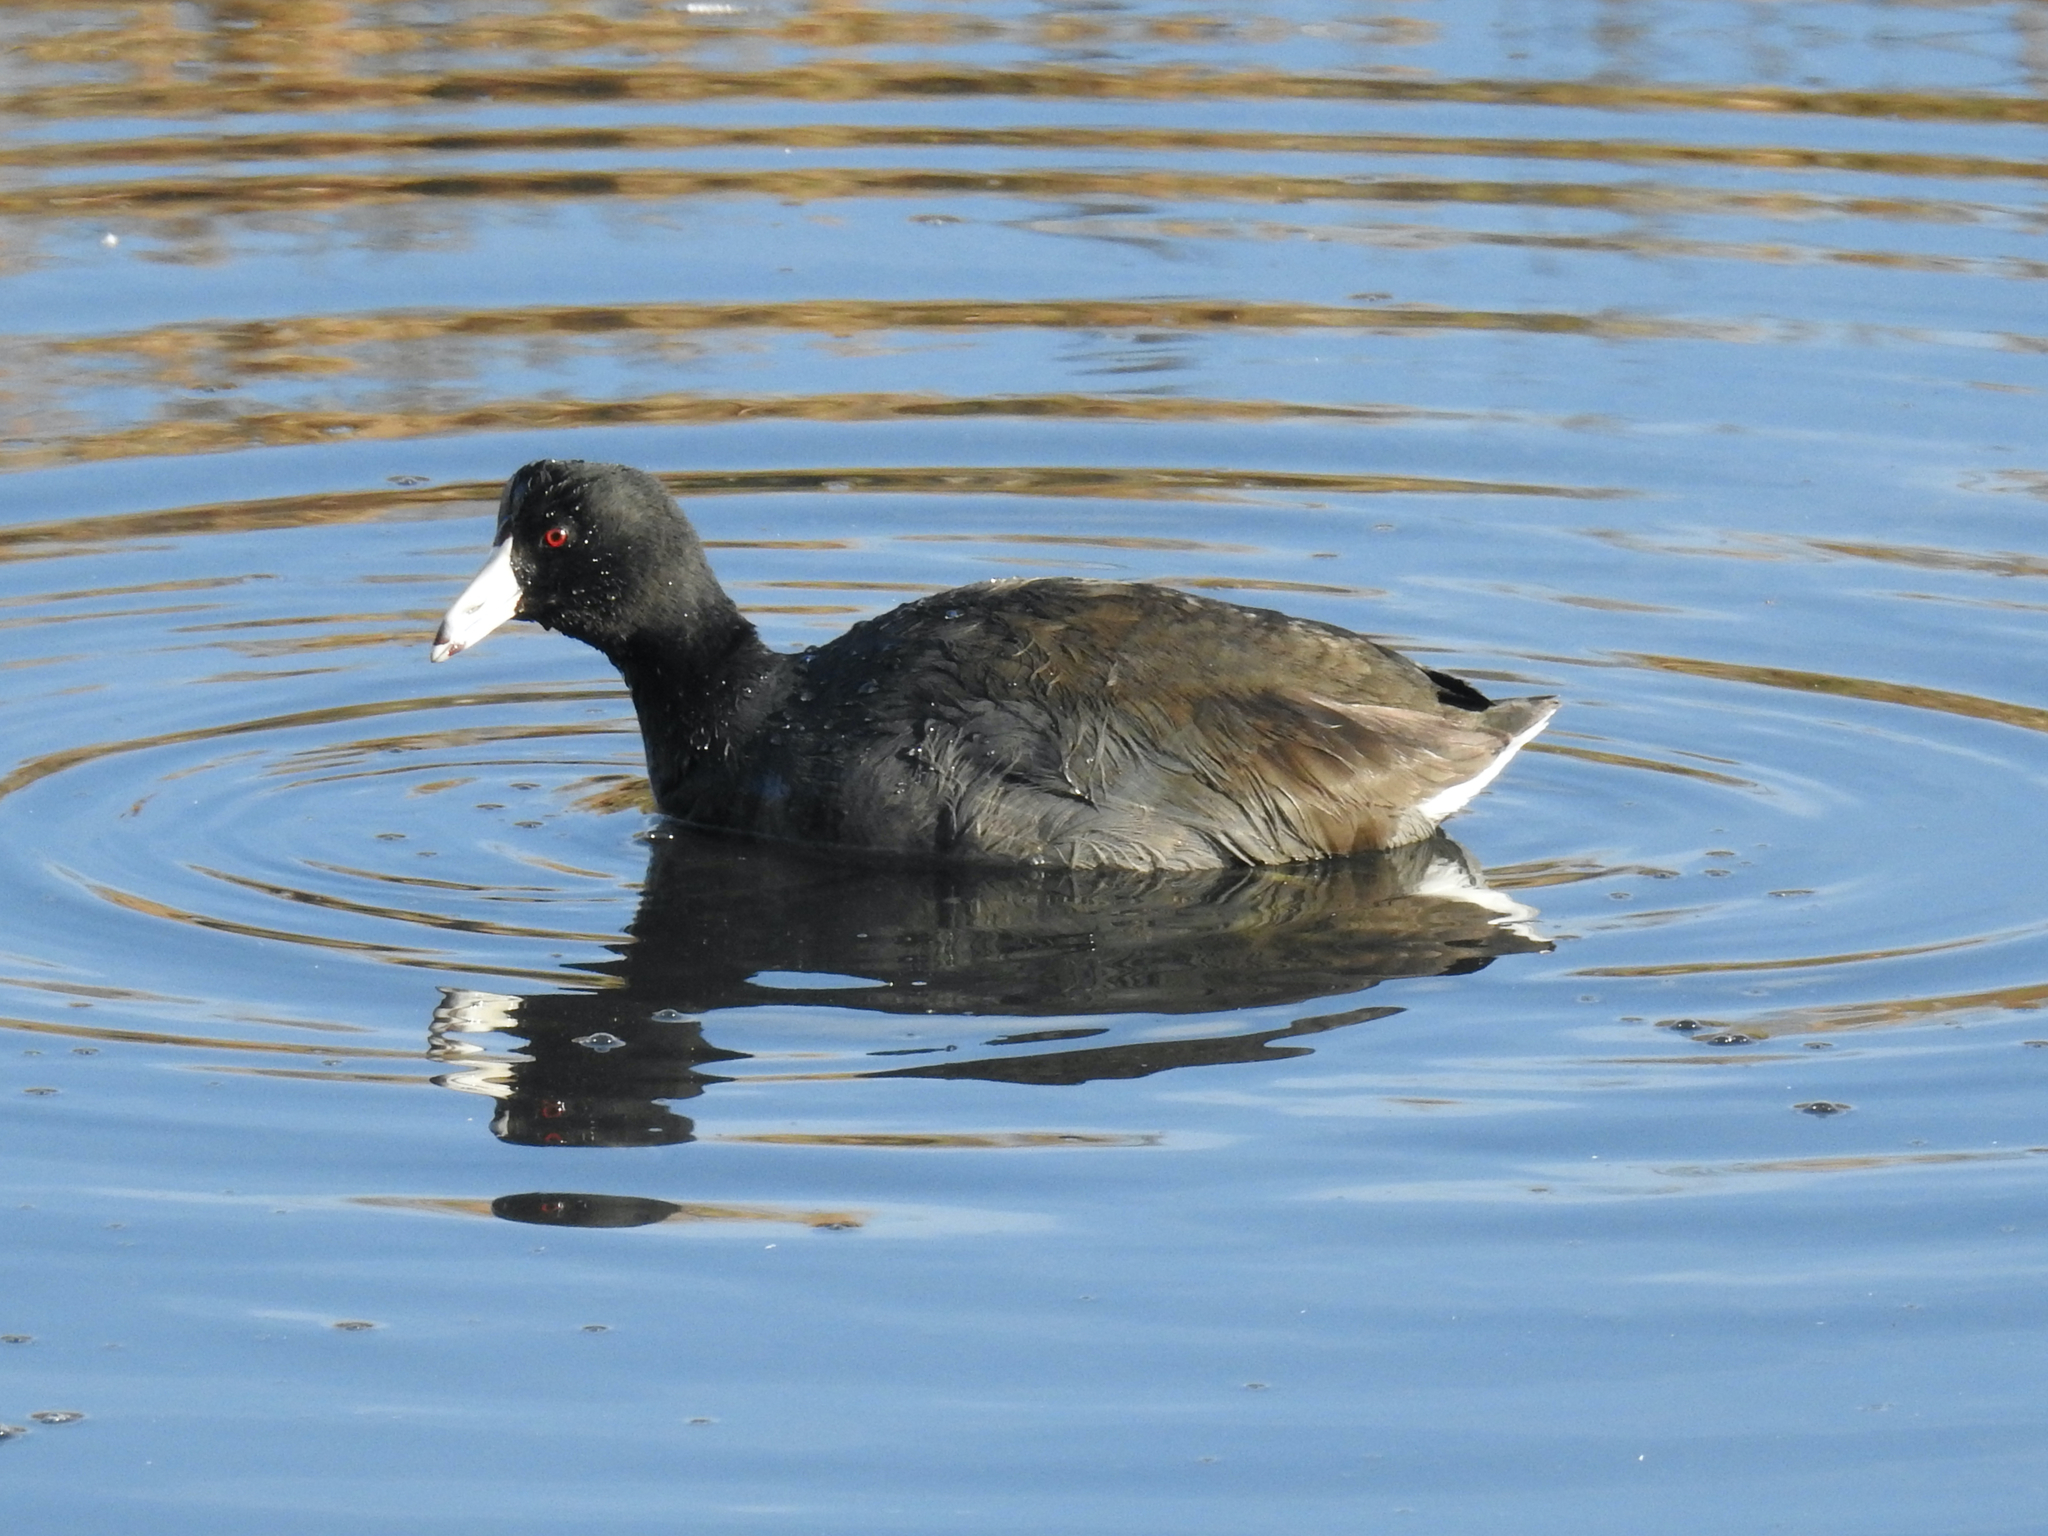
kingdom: Animalia
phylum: Chordata
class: Aves
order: Gruiformes
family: Rallidae
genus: Fulica
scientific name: Fulica americana
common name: American coot
